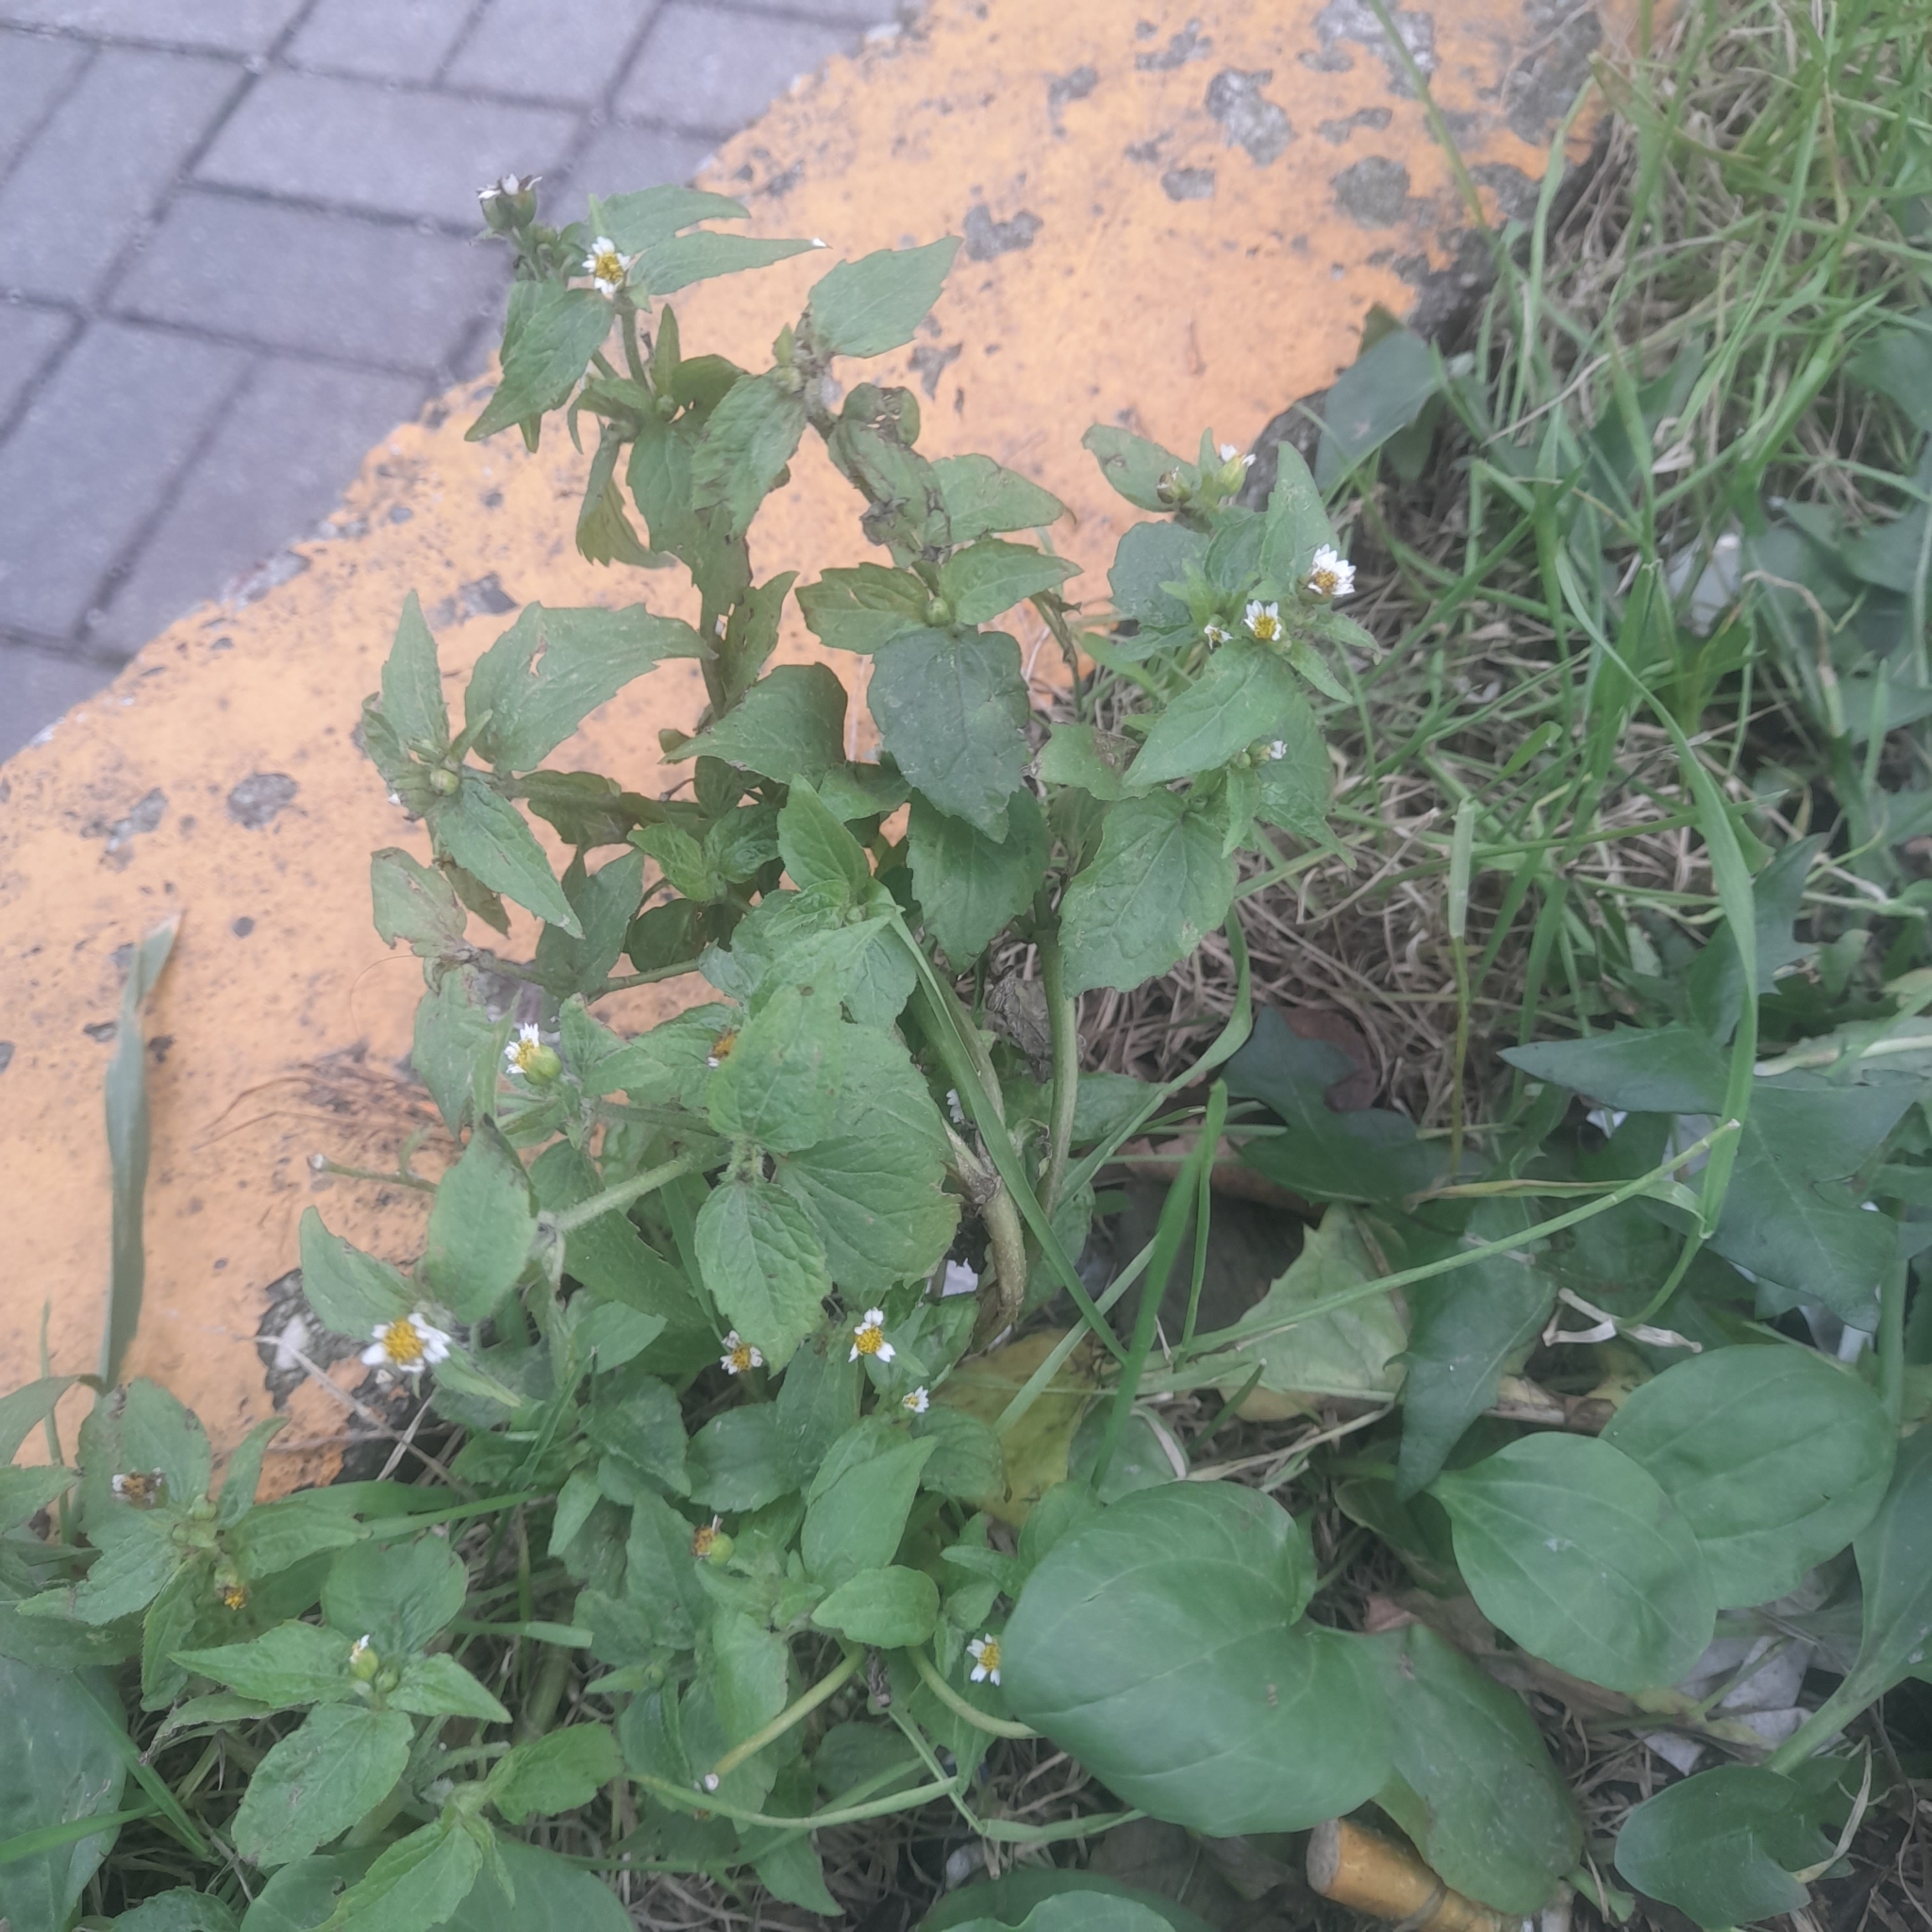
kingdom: Plantae
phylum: Tracheophyta
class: Magnoliopsida
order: Asterales
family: Asteraceae
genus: Galinsoga
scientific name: Galinsoga quadriradiata
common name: Shaggy soldier
